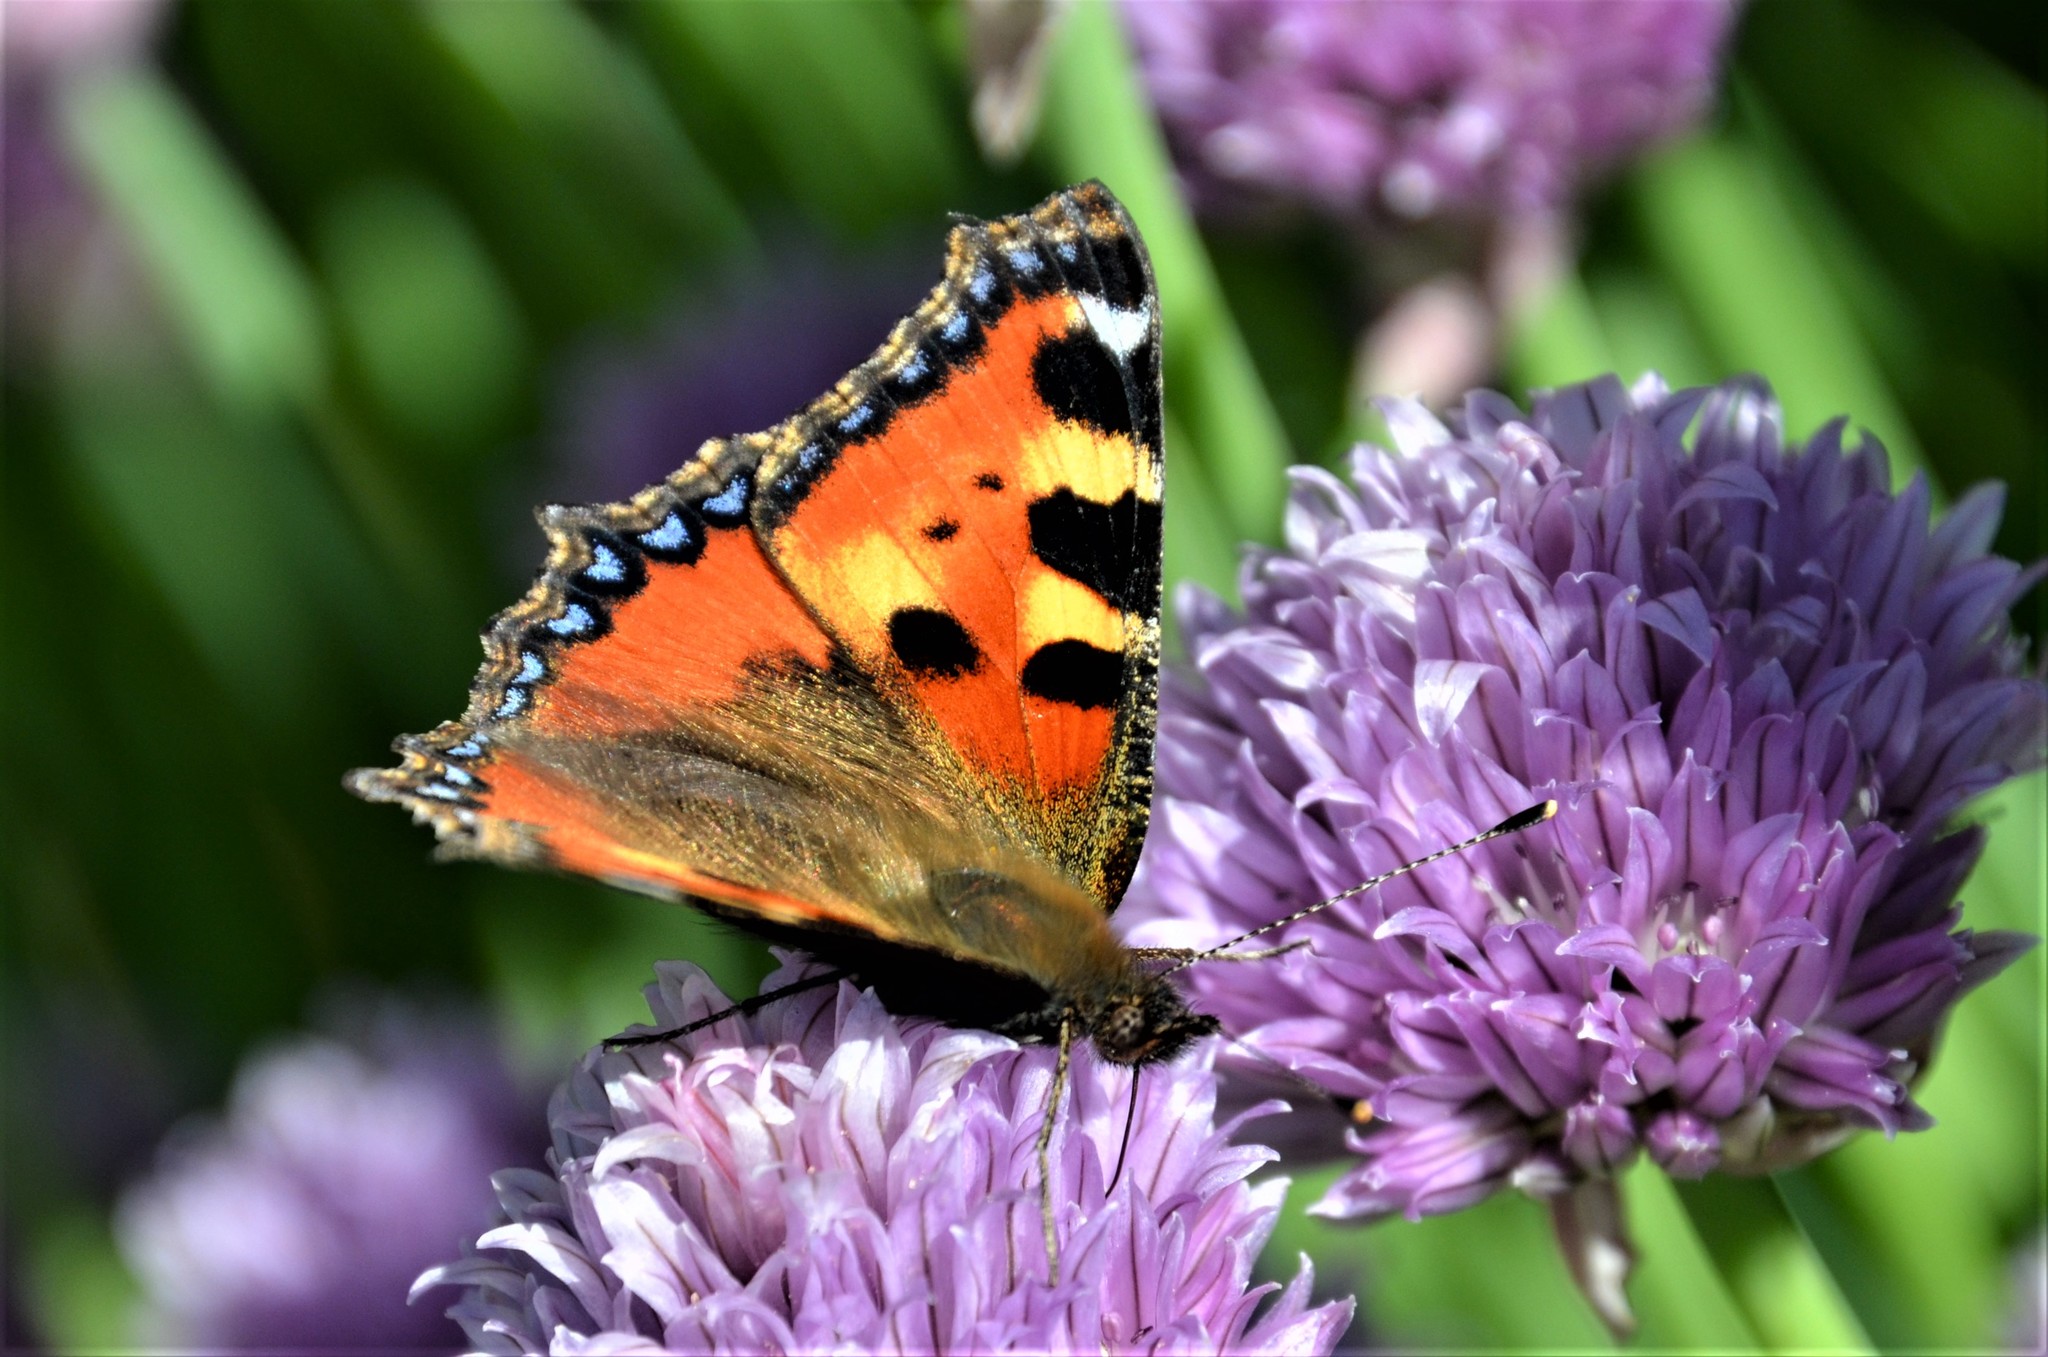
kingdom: Animalia
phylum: Arthropoda
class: Insecta
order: Lepidoptera
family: Nymphalidae
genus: Aglais
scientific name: Aglais urticae
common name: Small tortoiseshell
